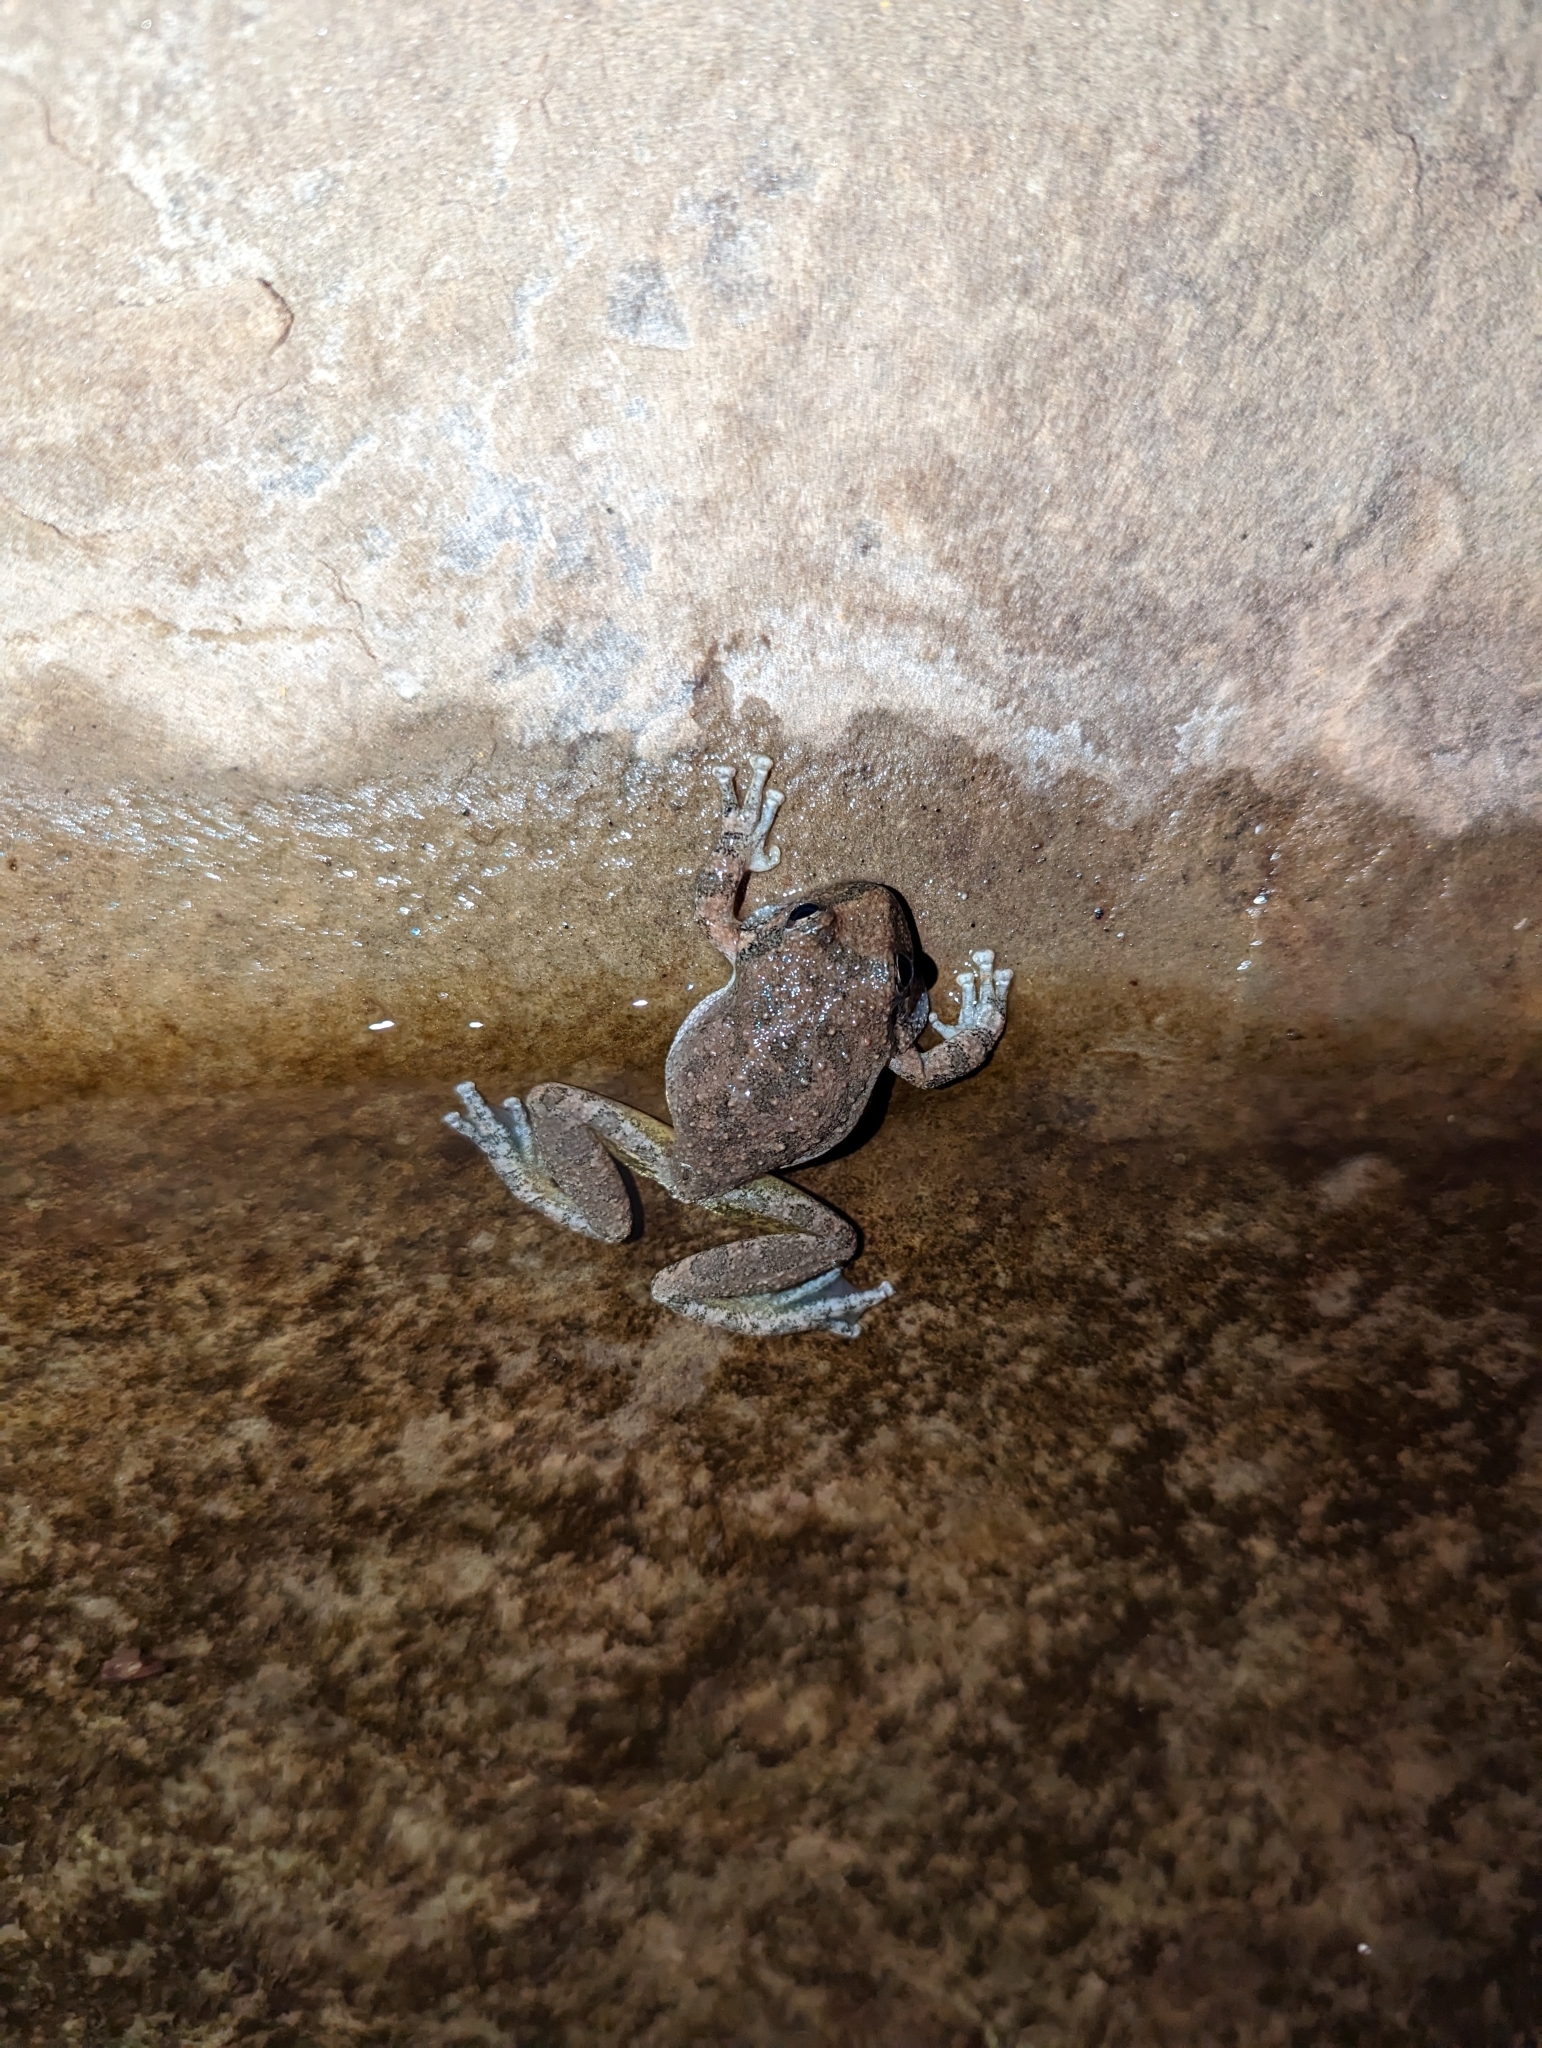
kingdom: Animalia
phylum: Chordata
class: Amphibia
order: Anura
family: Hylidae
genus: Pseudacris
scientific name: Pseudacris cadaverina
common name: California chorus frog
